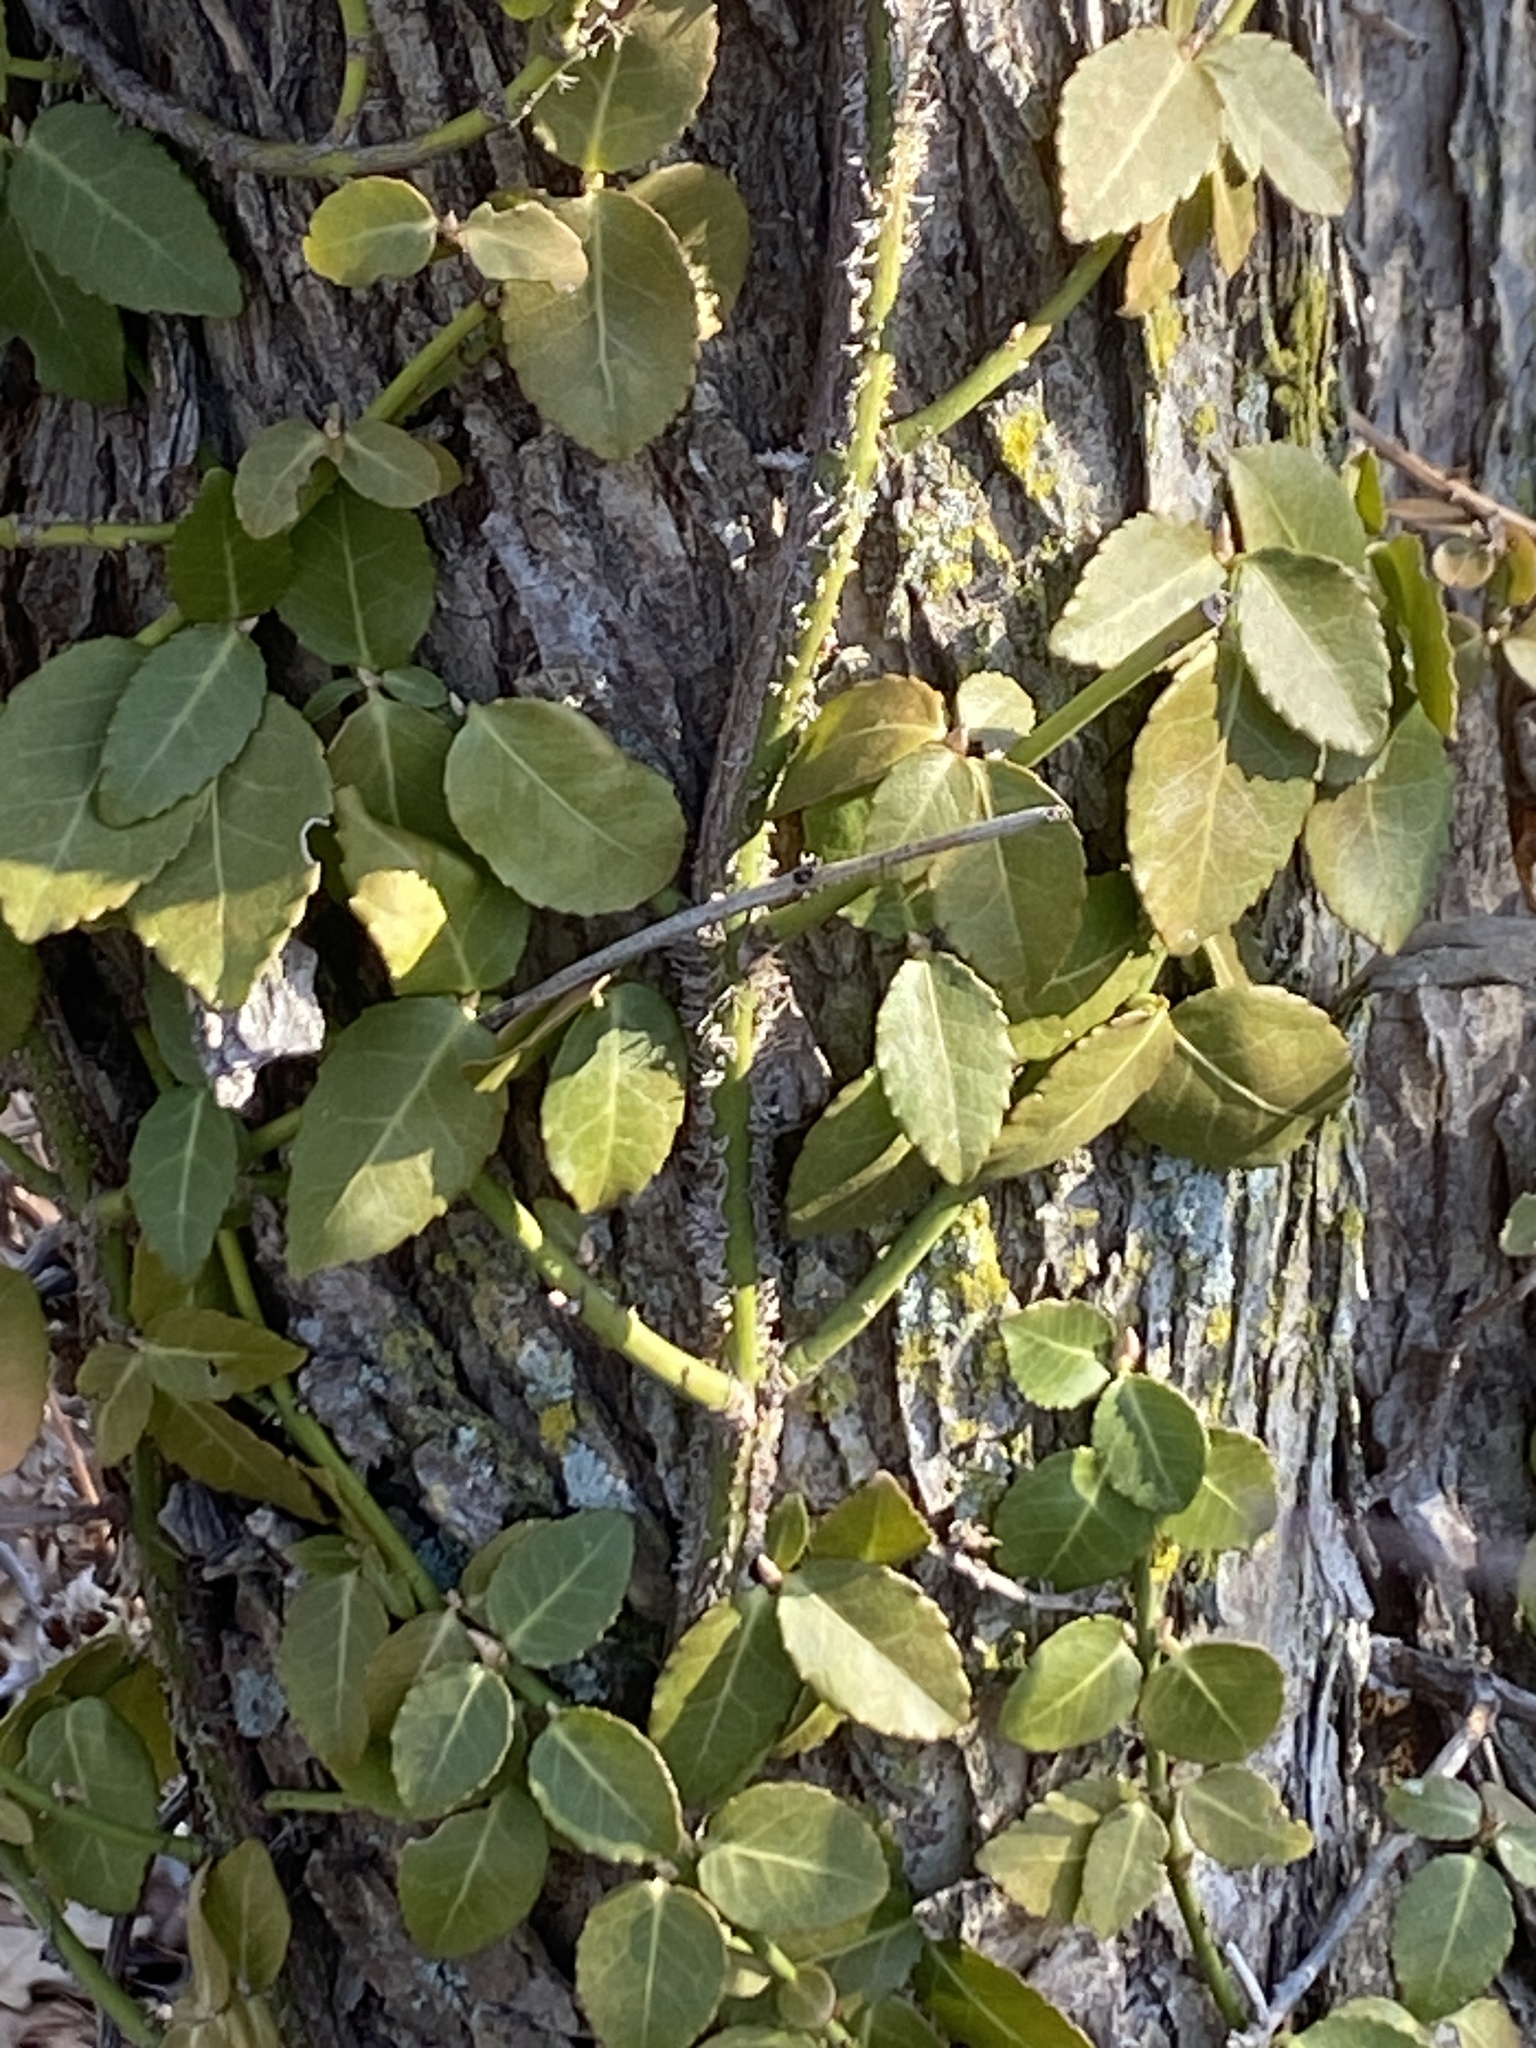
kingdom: Plantae
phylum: Tracheophyta
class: Magnoliopsida
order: Celastrales
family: Celastraceae
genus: Euonymus
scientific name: Euonymus fortunei
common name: Climbing euonymus
